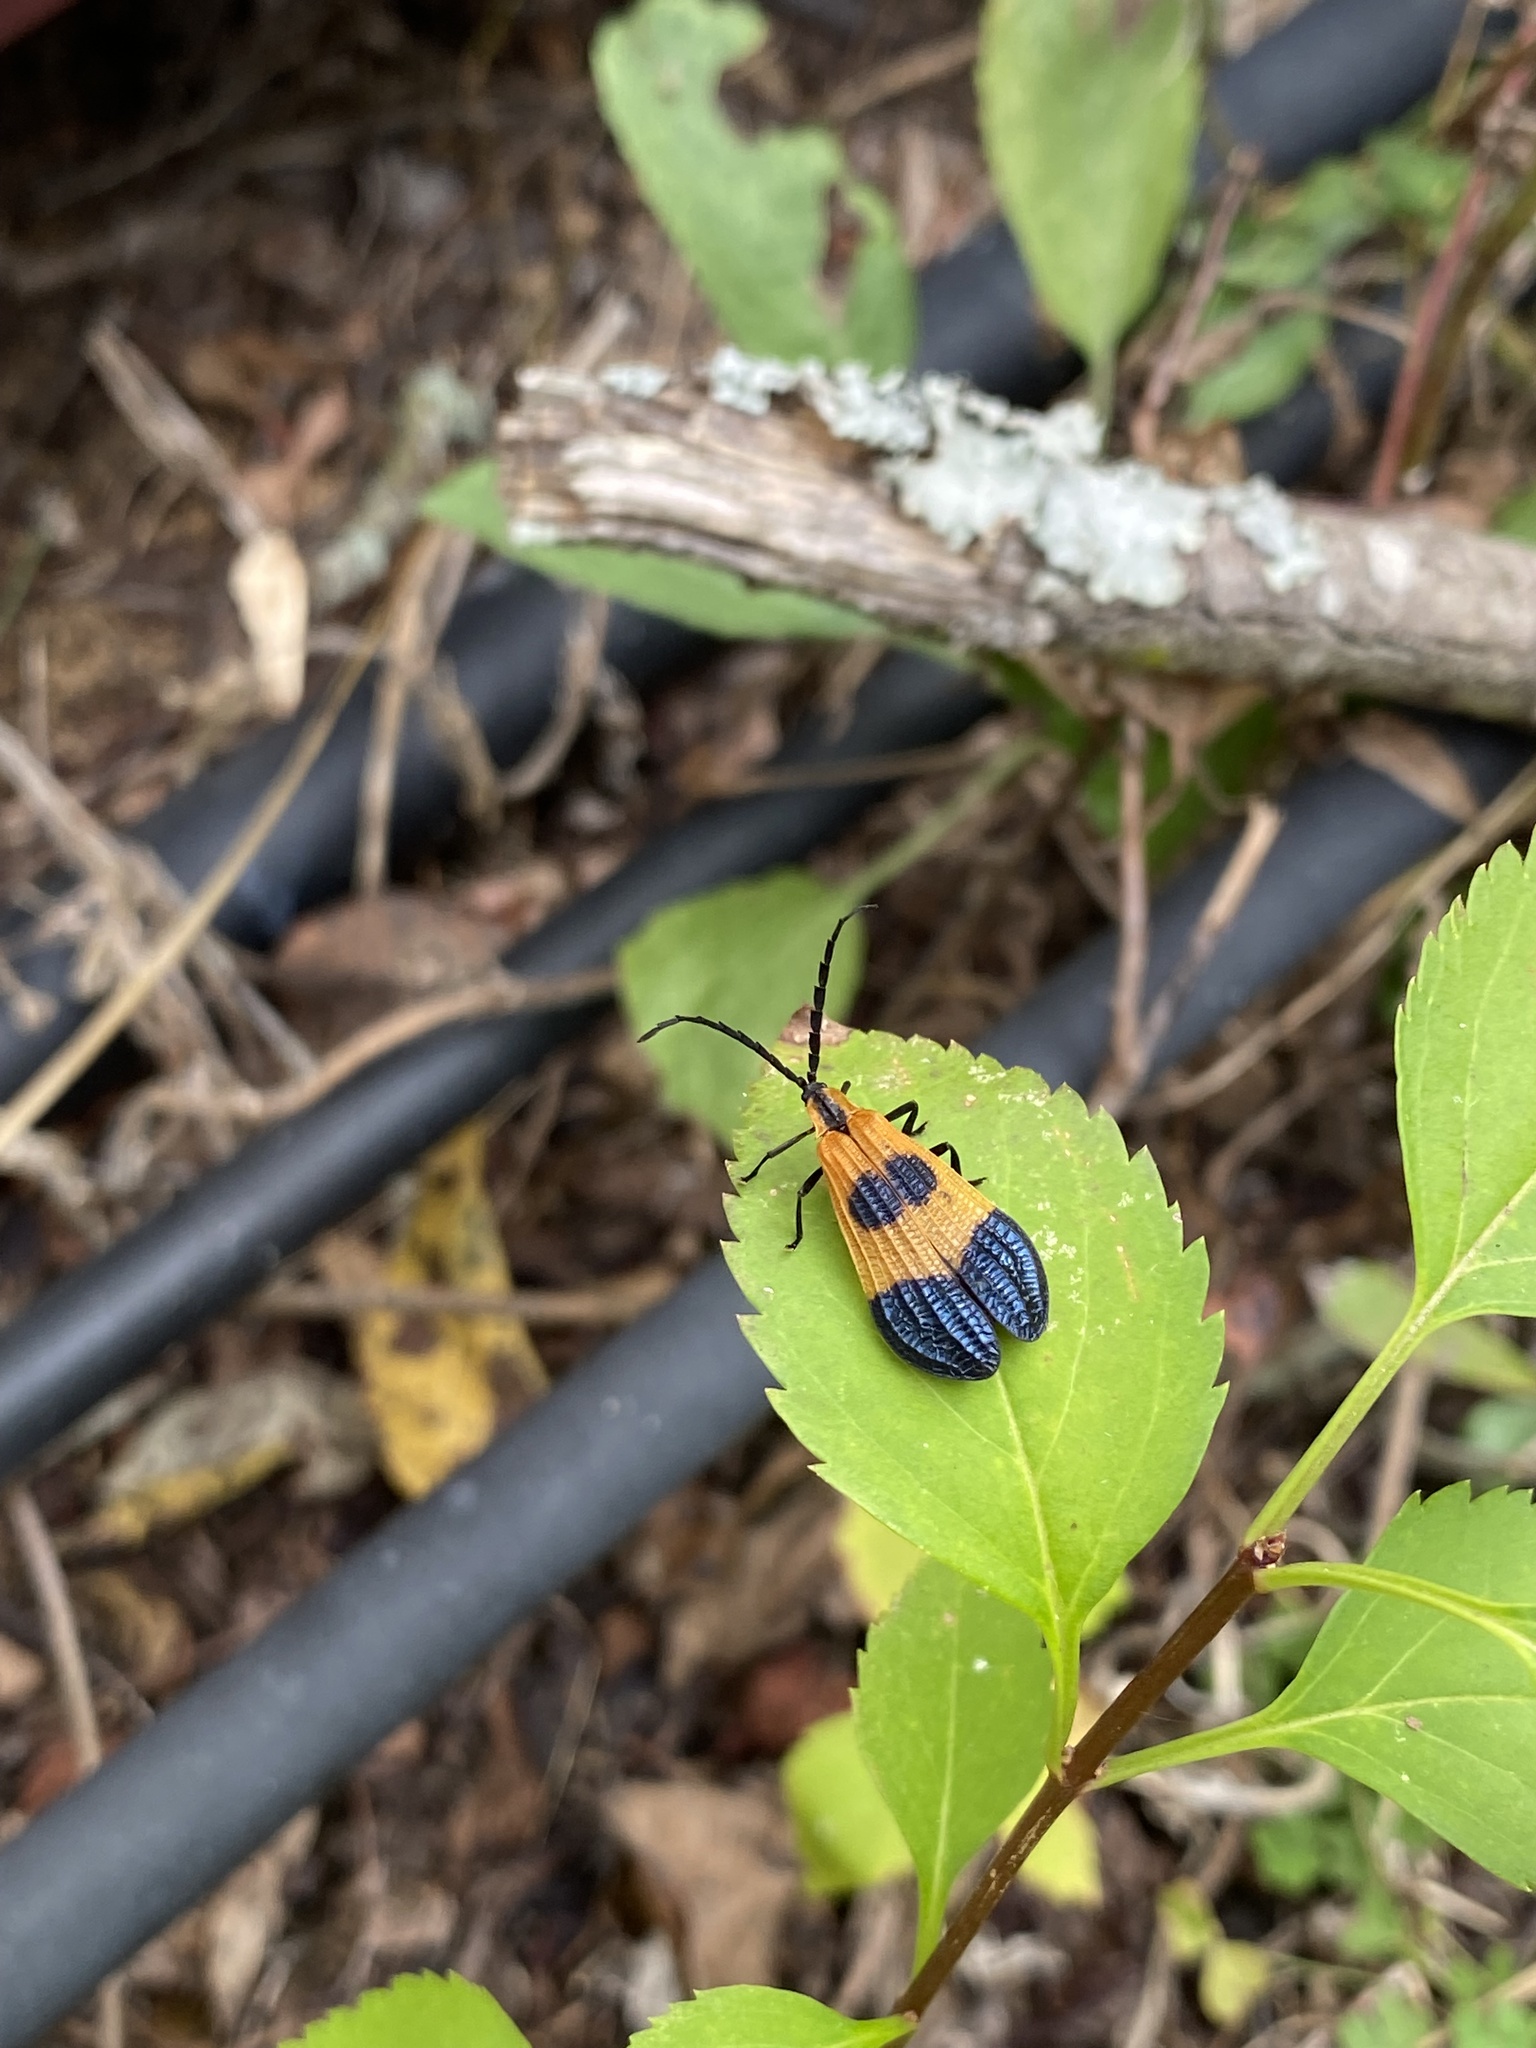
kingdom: Animalia
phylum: Arthropoda
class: Insecta
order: Coleoptera
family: Lycidae
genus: Calopteron
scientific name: Calopteron terminale
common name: End band net-winged beetle
